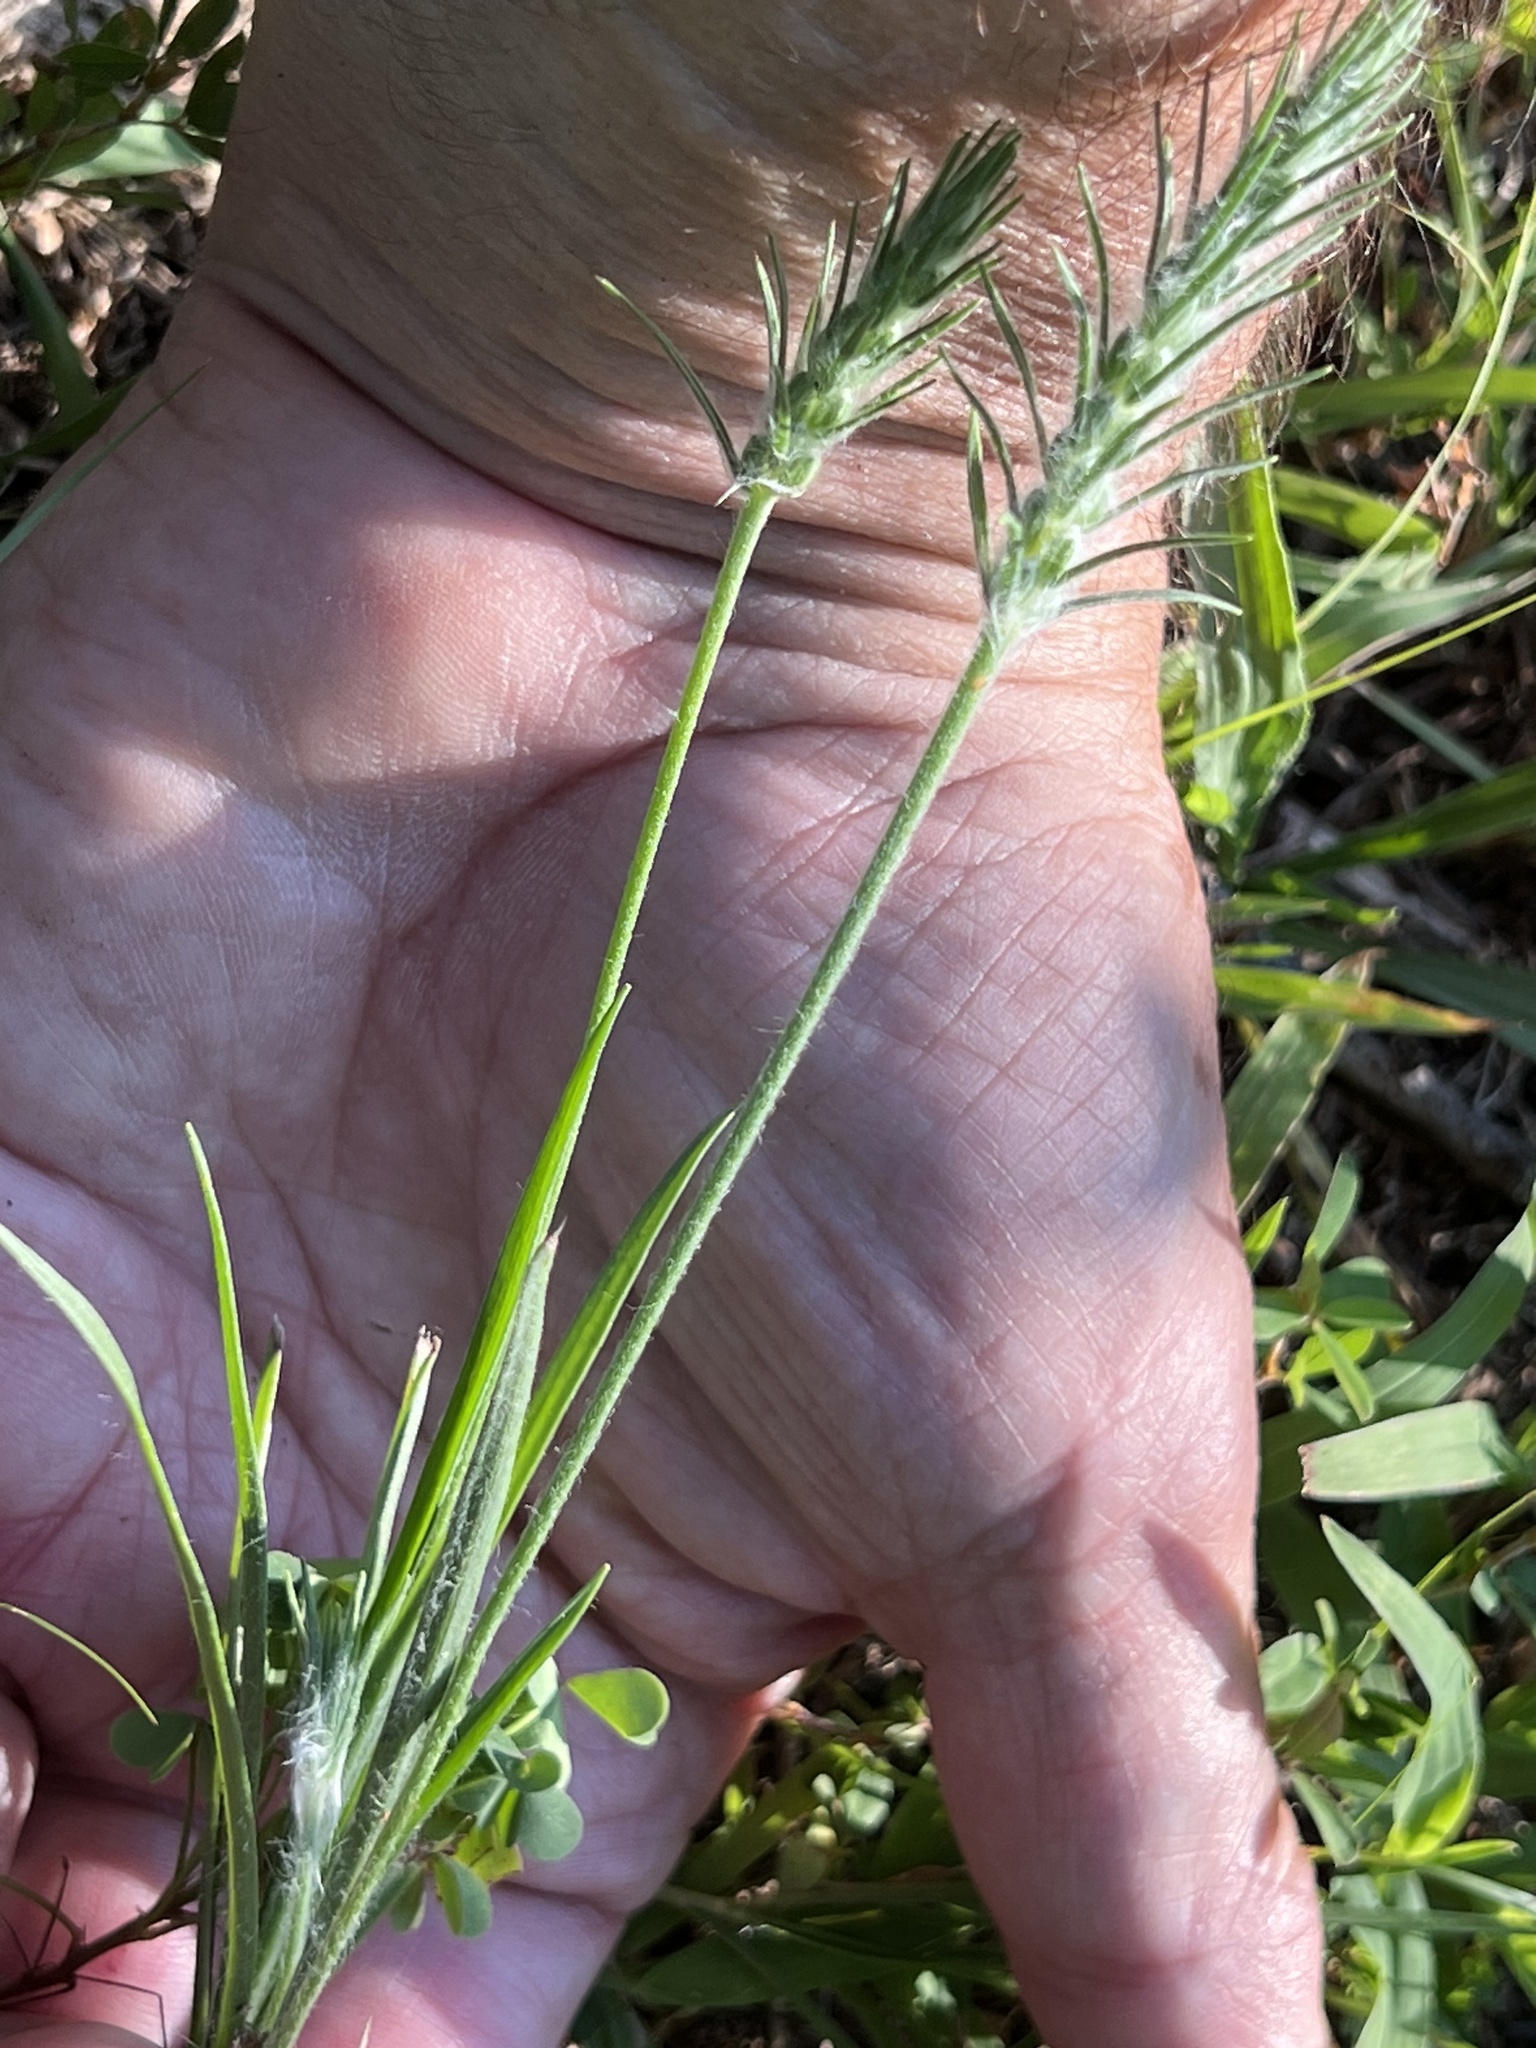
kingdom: Plantae
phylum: Tracheophyta
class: Magnoliopsida
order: Lamiales
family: Plantaginaceae
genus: Plantago
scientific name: Plantago aristata
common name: Bracted plantain
